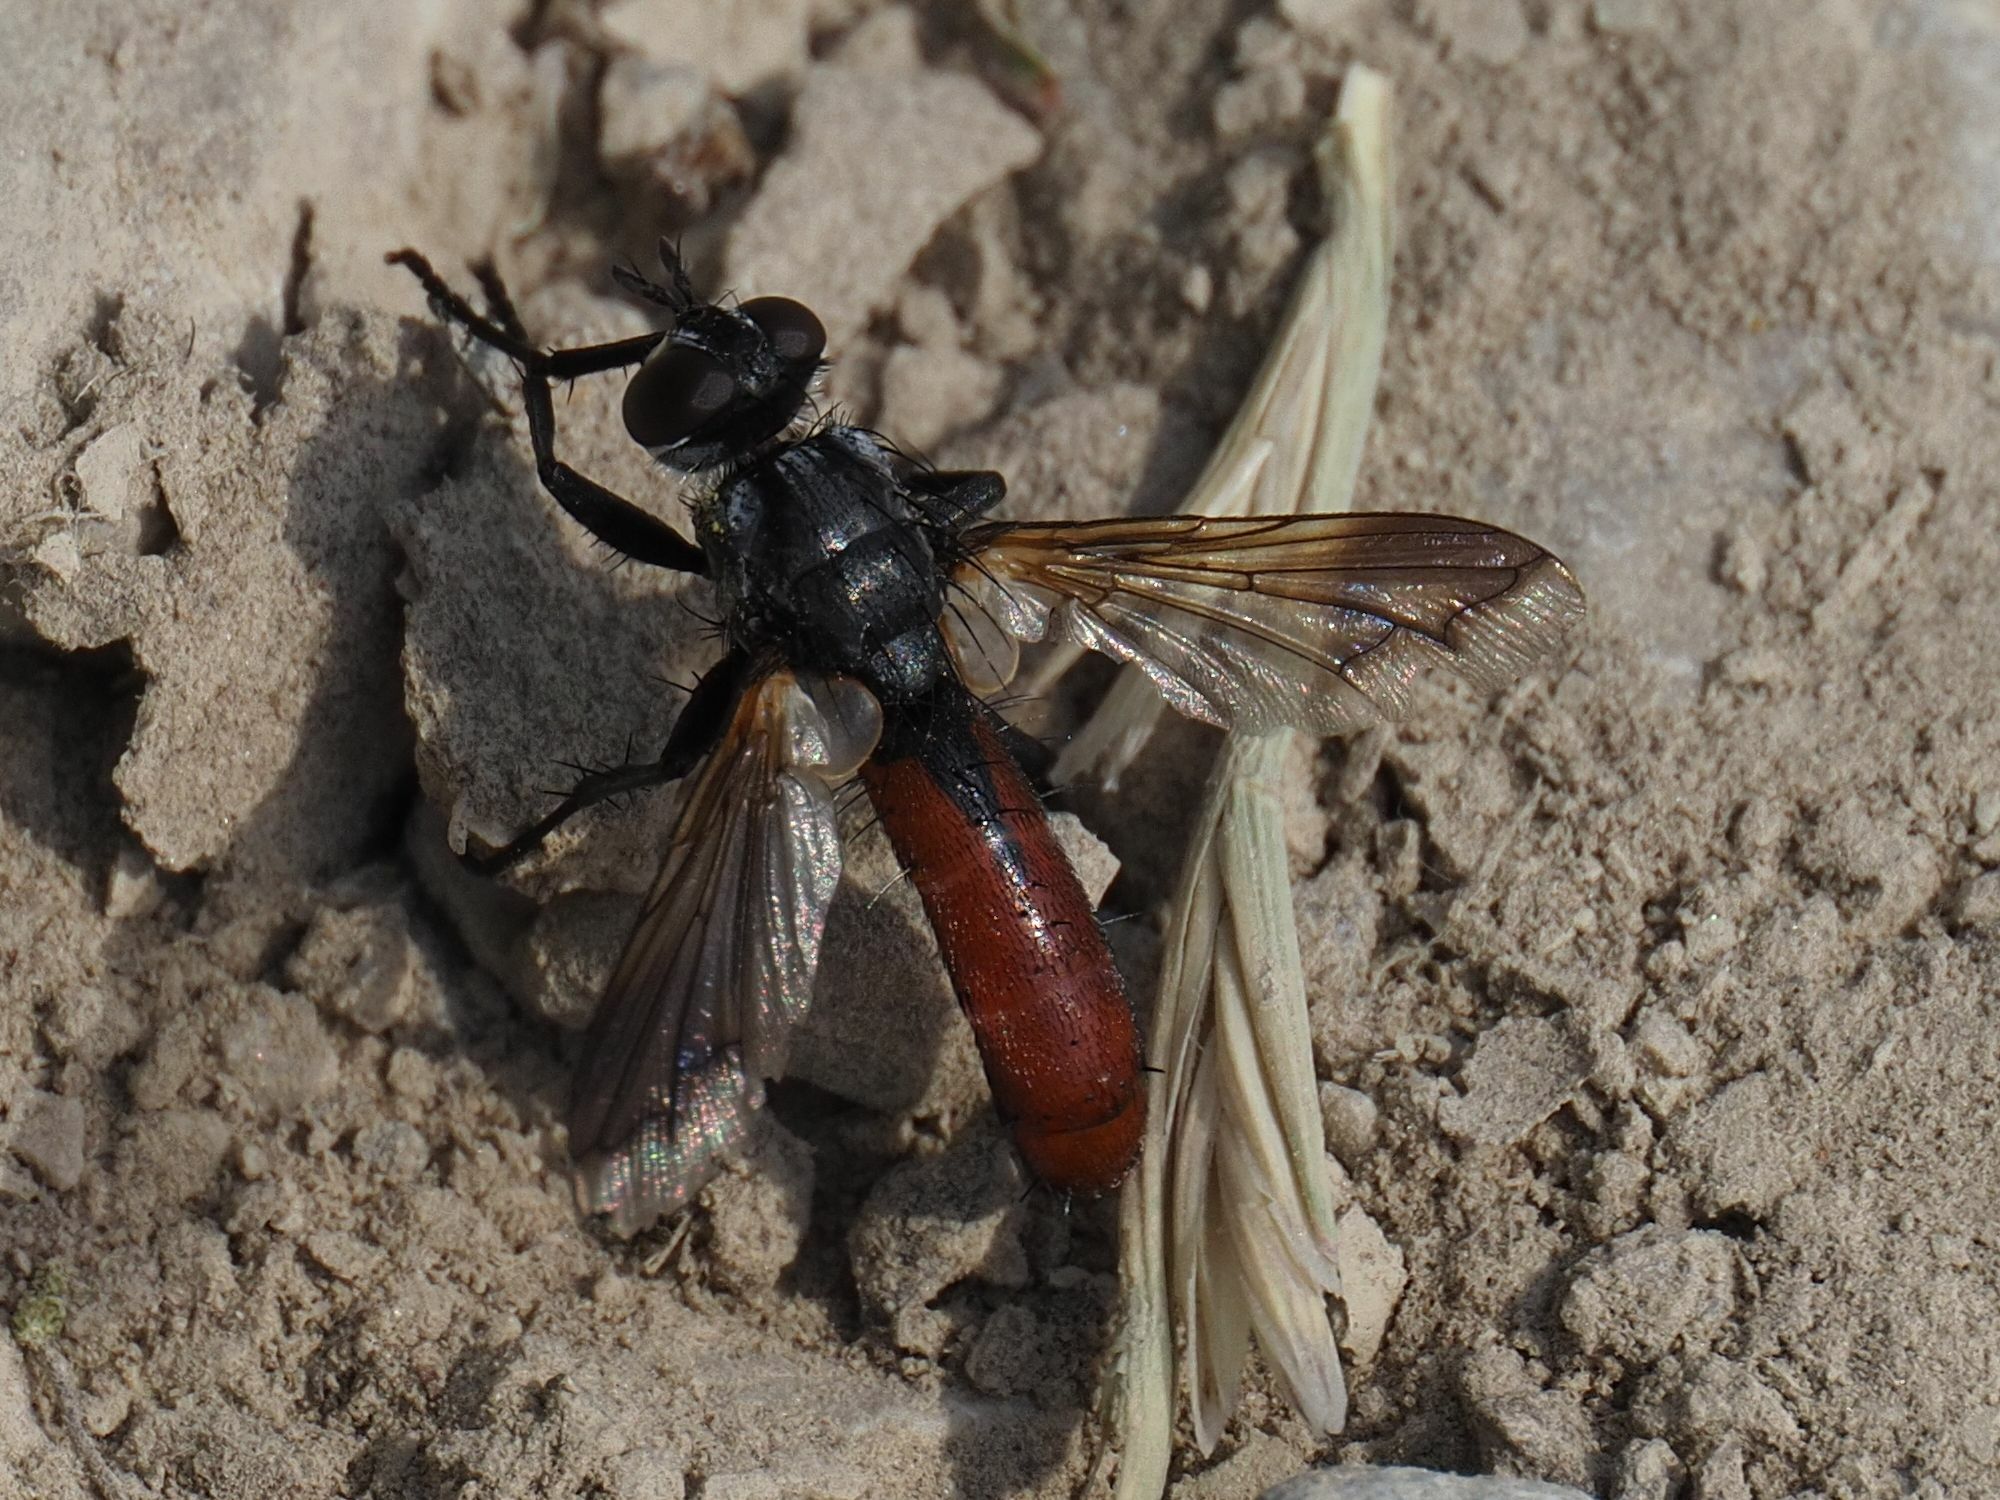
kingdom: Animalia
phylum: Arthropoda
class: Insecta
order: Diptera
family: Tachinidae
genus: Cylindromyia
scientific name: Cylindromyia bicolor
